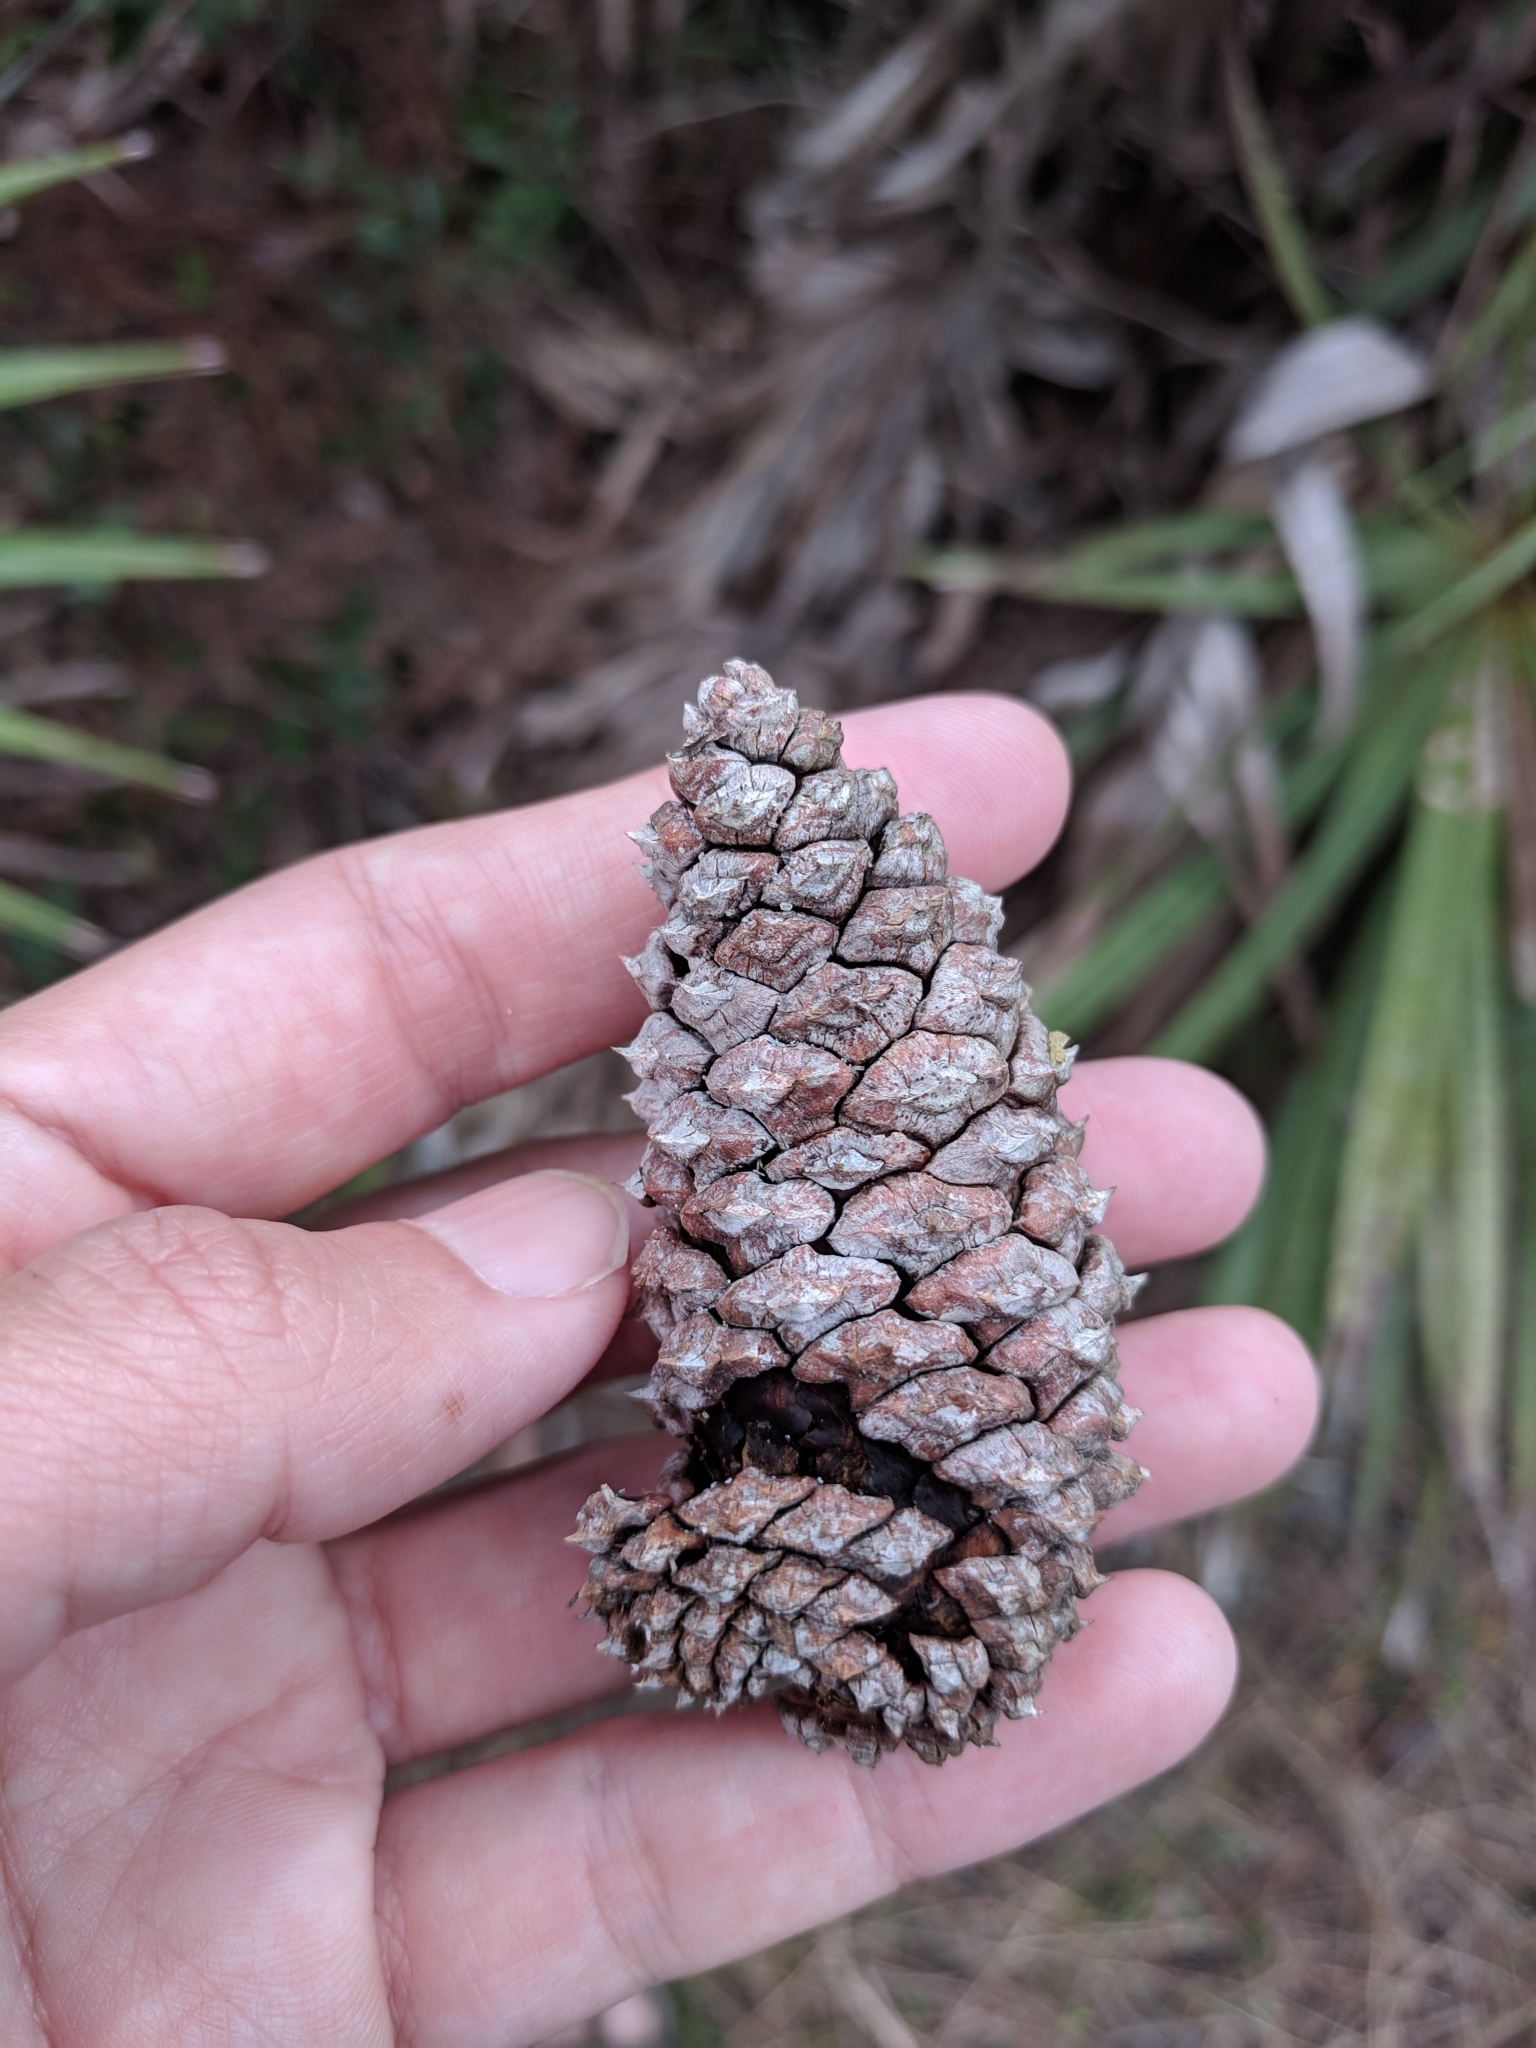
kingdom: Plantae
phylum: Tracheophyta
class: Pinopsida
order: Pinales
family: Pinaceae
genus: Pinus
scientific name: Pinus elliottii
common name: Slash pine
